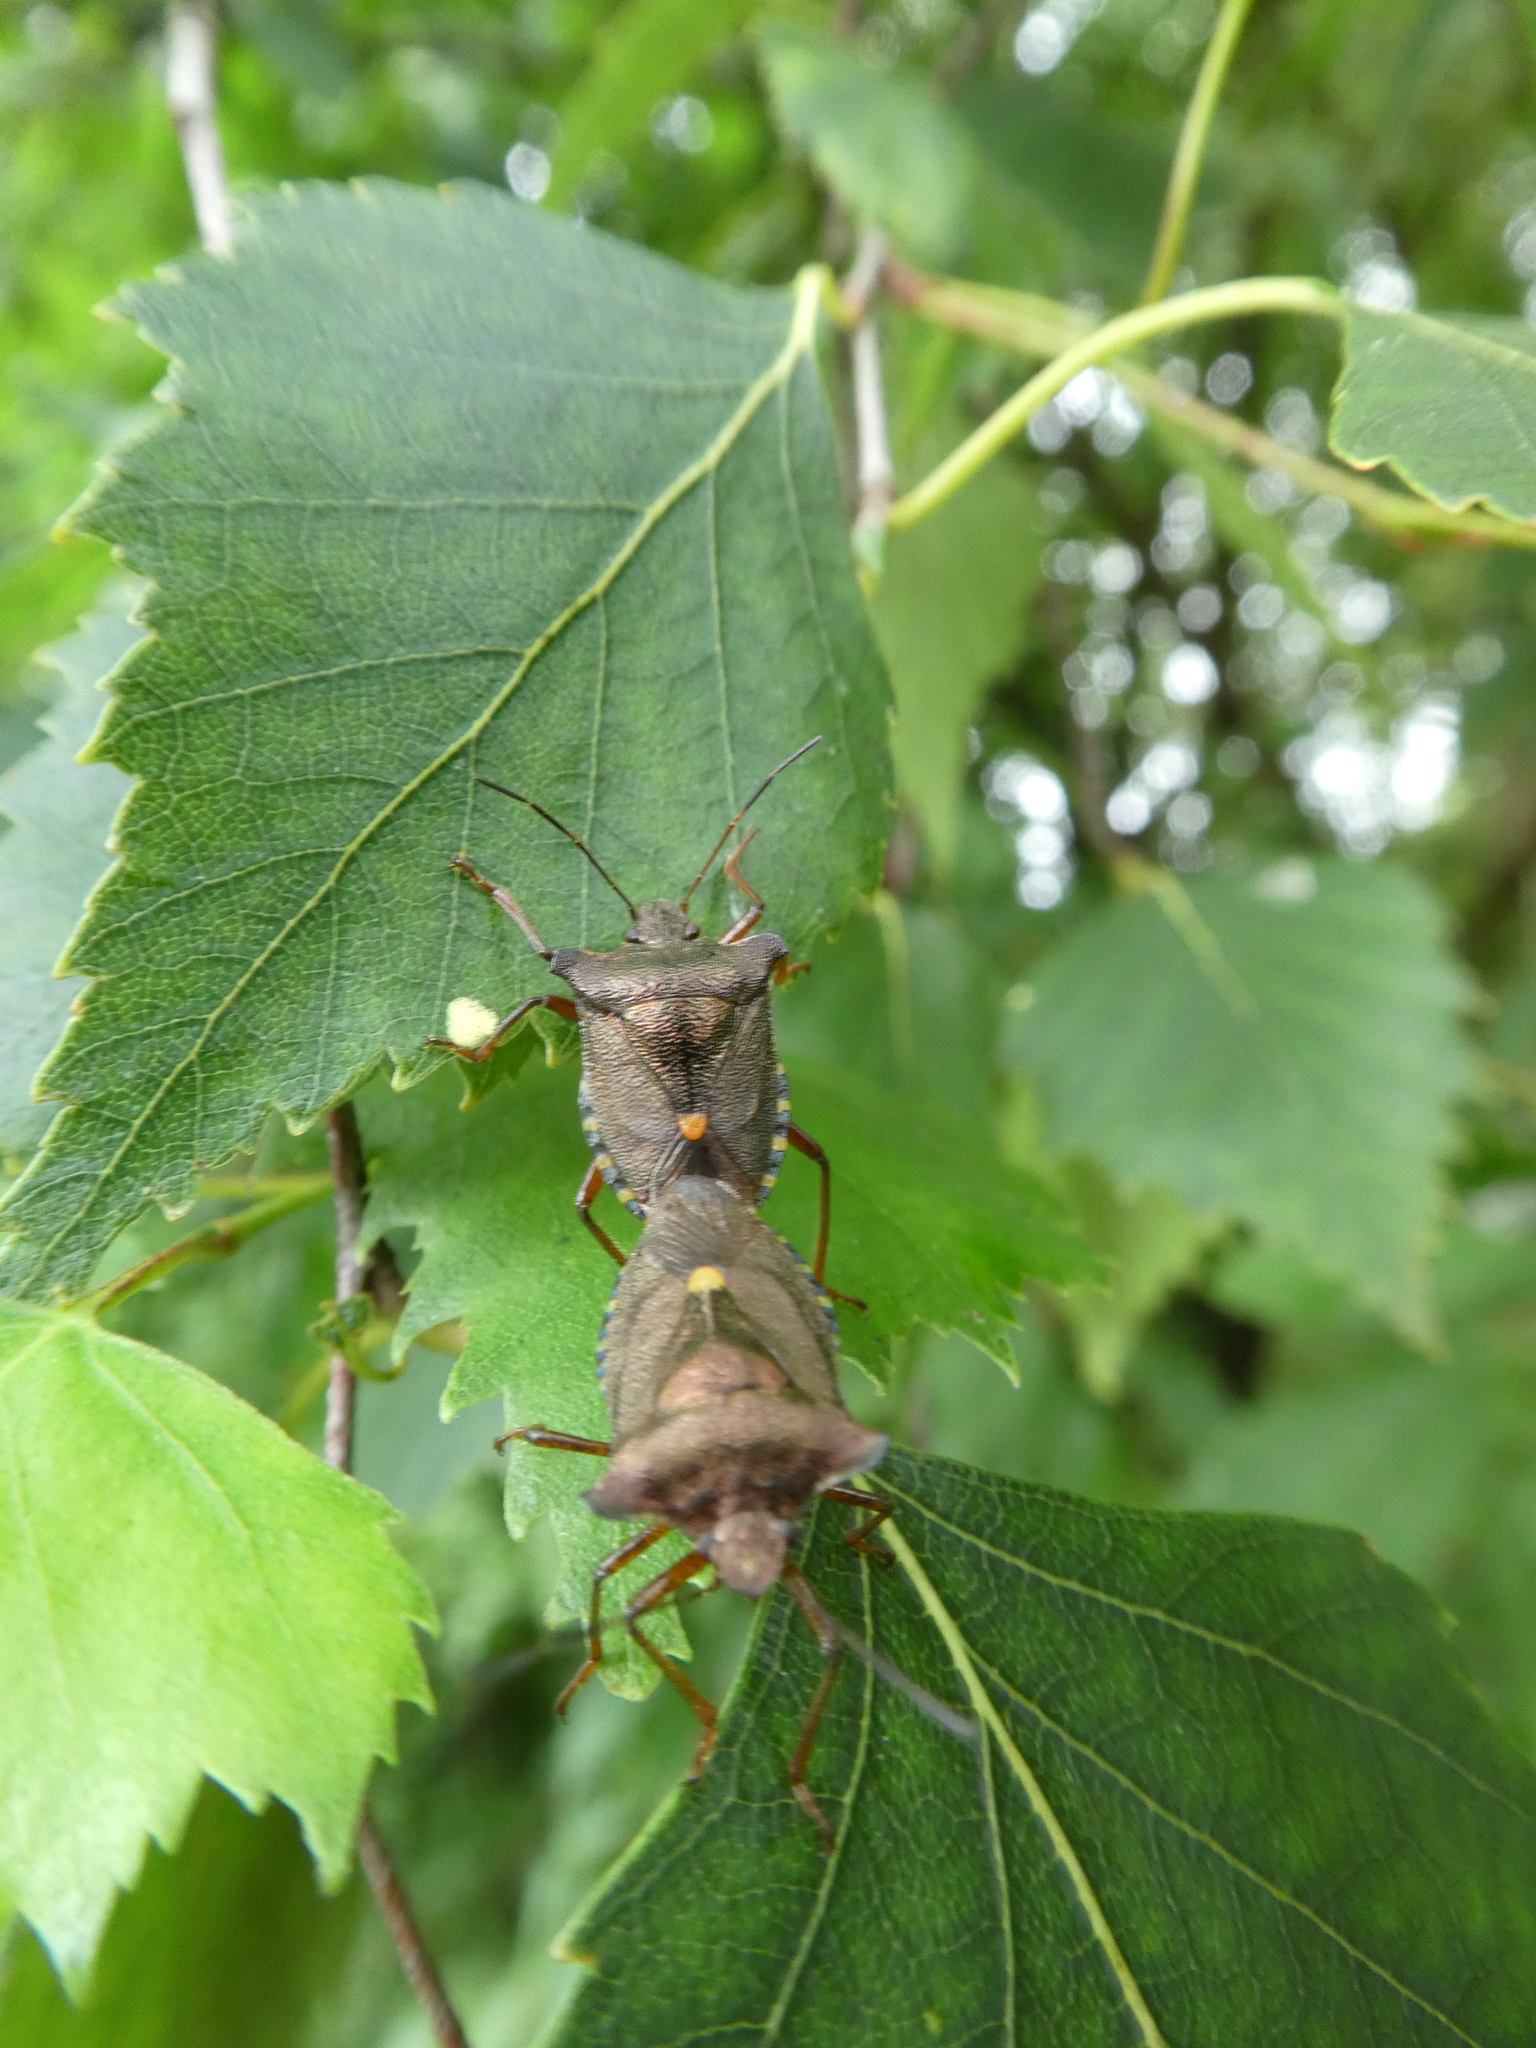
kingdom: Animalia
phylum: Arthropoda
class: Insecta
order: Hemiptera
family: Pentatomidae
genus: Pentatoma
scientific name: Pentatoma rufipes
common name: Forest bug
